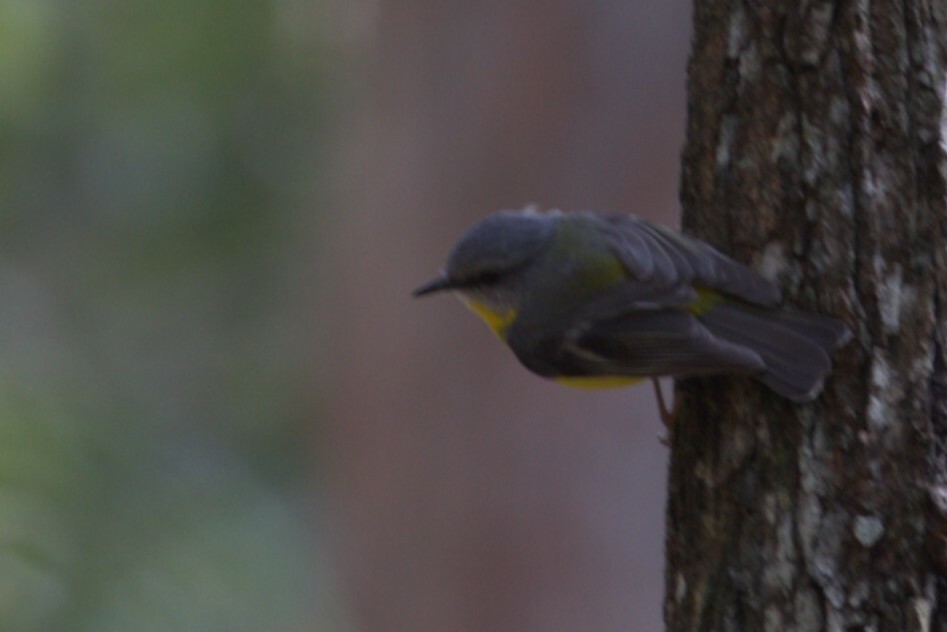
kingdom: Animalia
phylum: Chordata
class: Aves
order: Passeriformes
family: Petroicidae
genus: Eopsaltria
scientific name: Eopsaltria australis
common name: Eastern yellow robin
